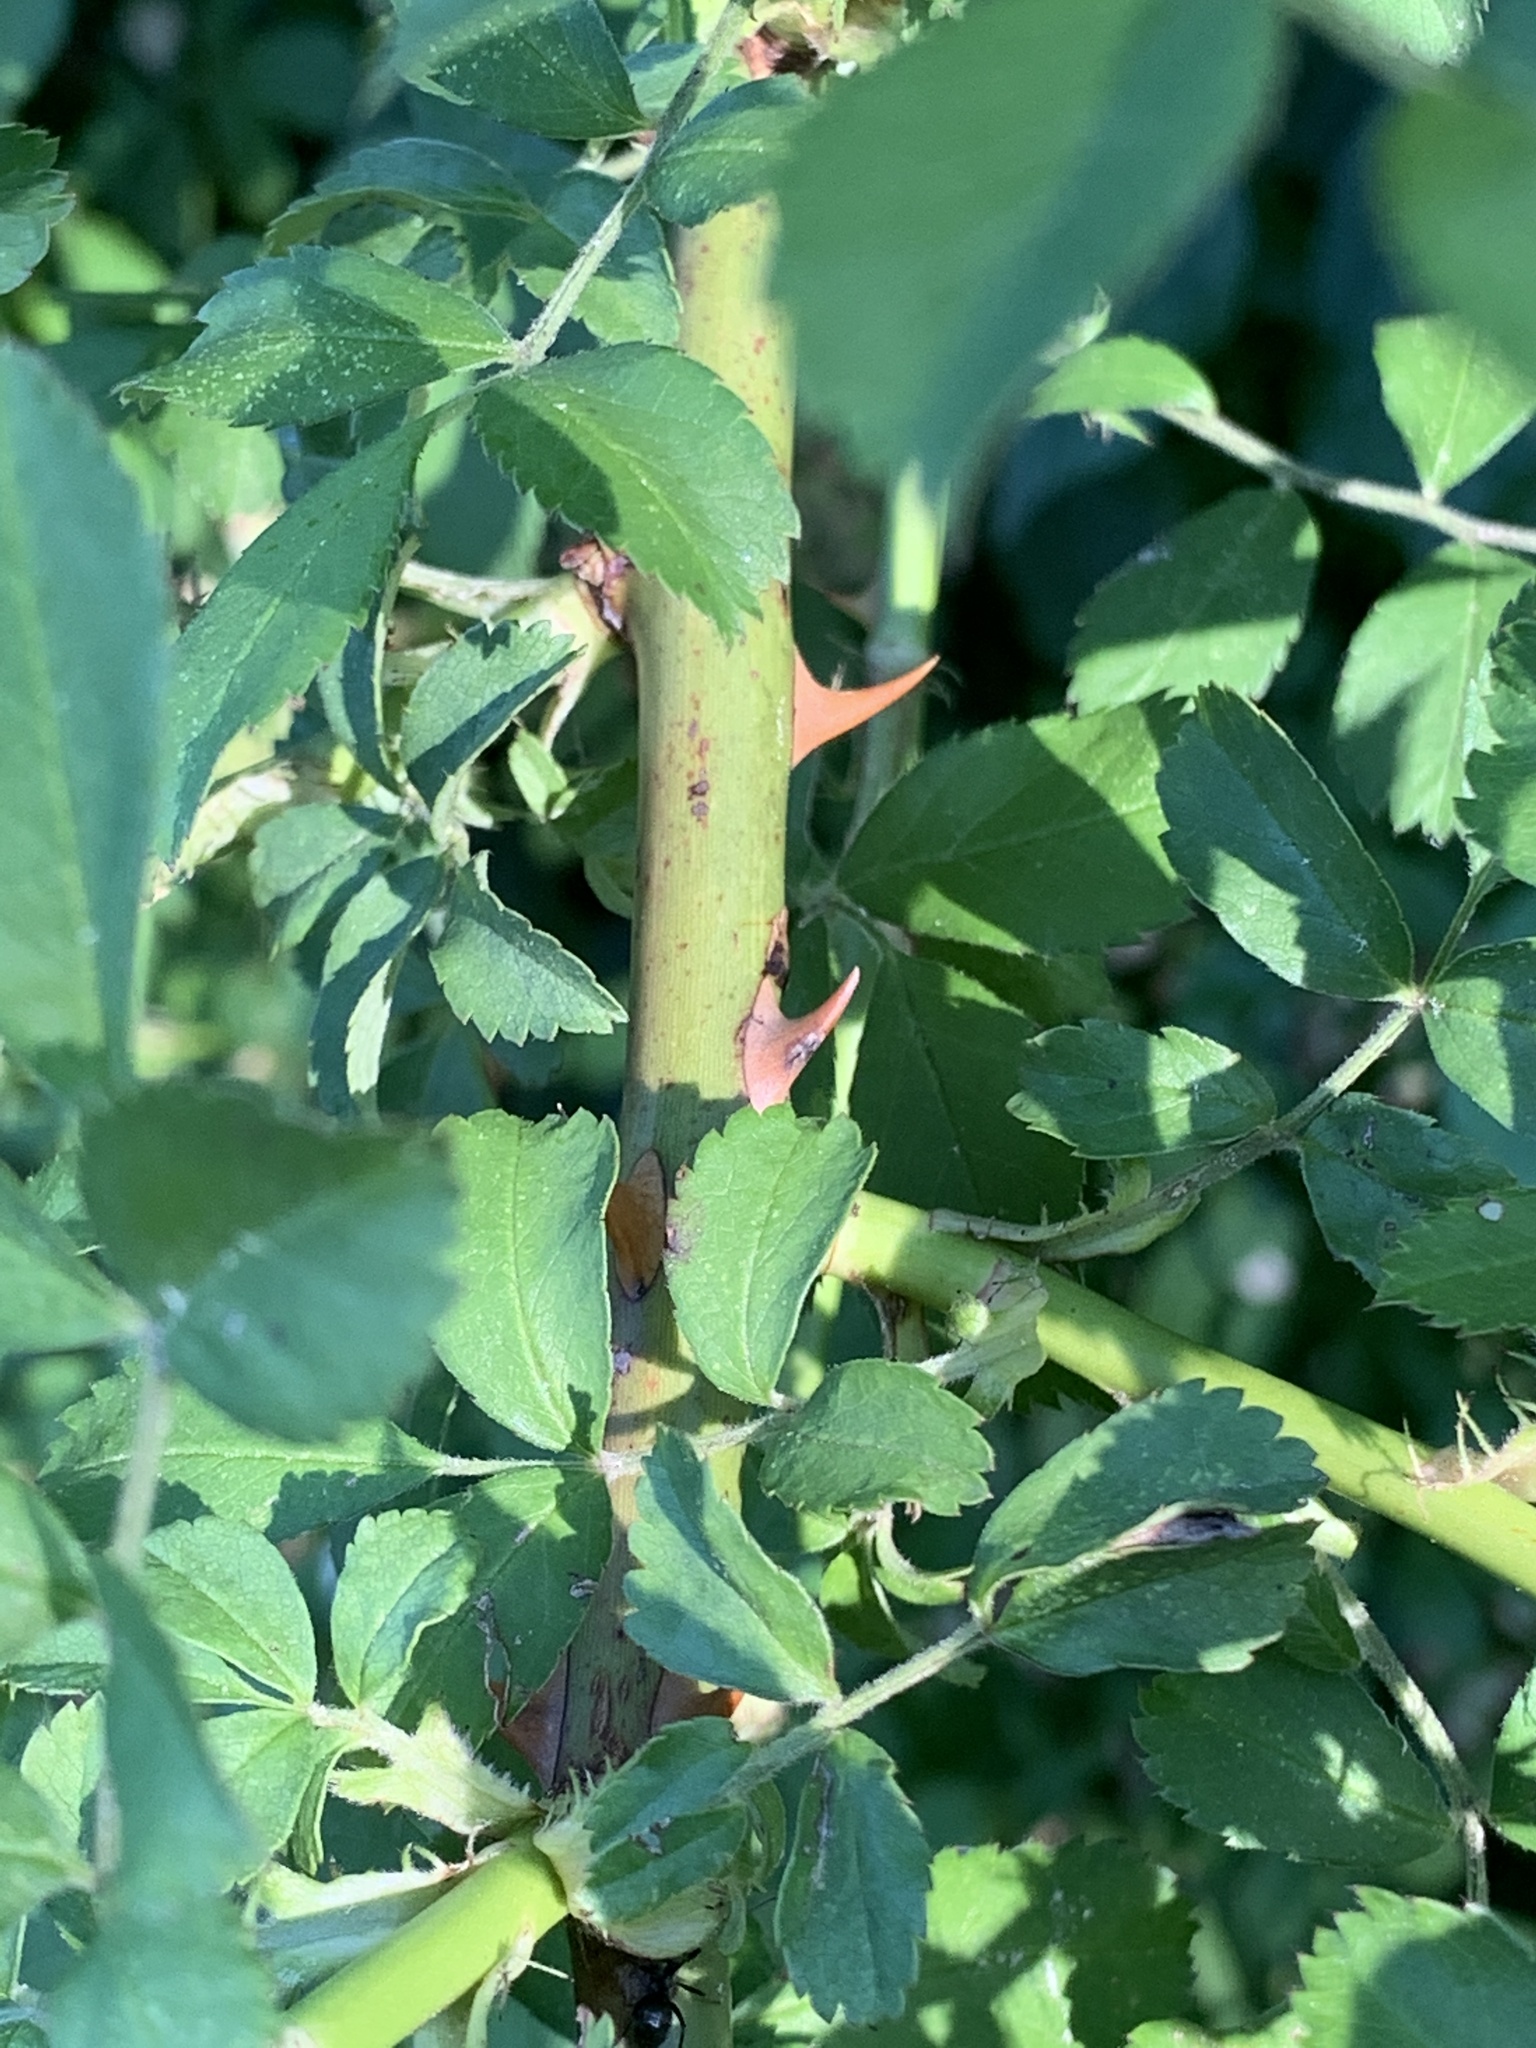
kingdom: Plantae
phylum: Tracheophyta
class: Magnoliopsida
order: Rosales
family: Rosaceae
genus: Rosa
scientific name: Rosa multiflora
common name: Multiflora rose
